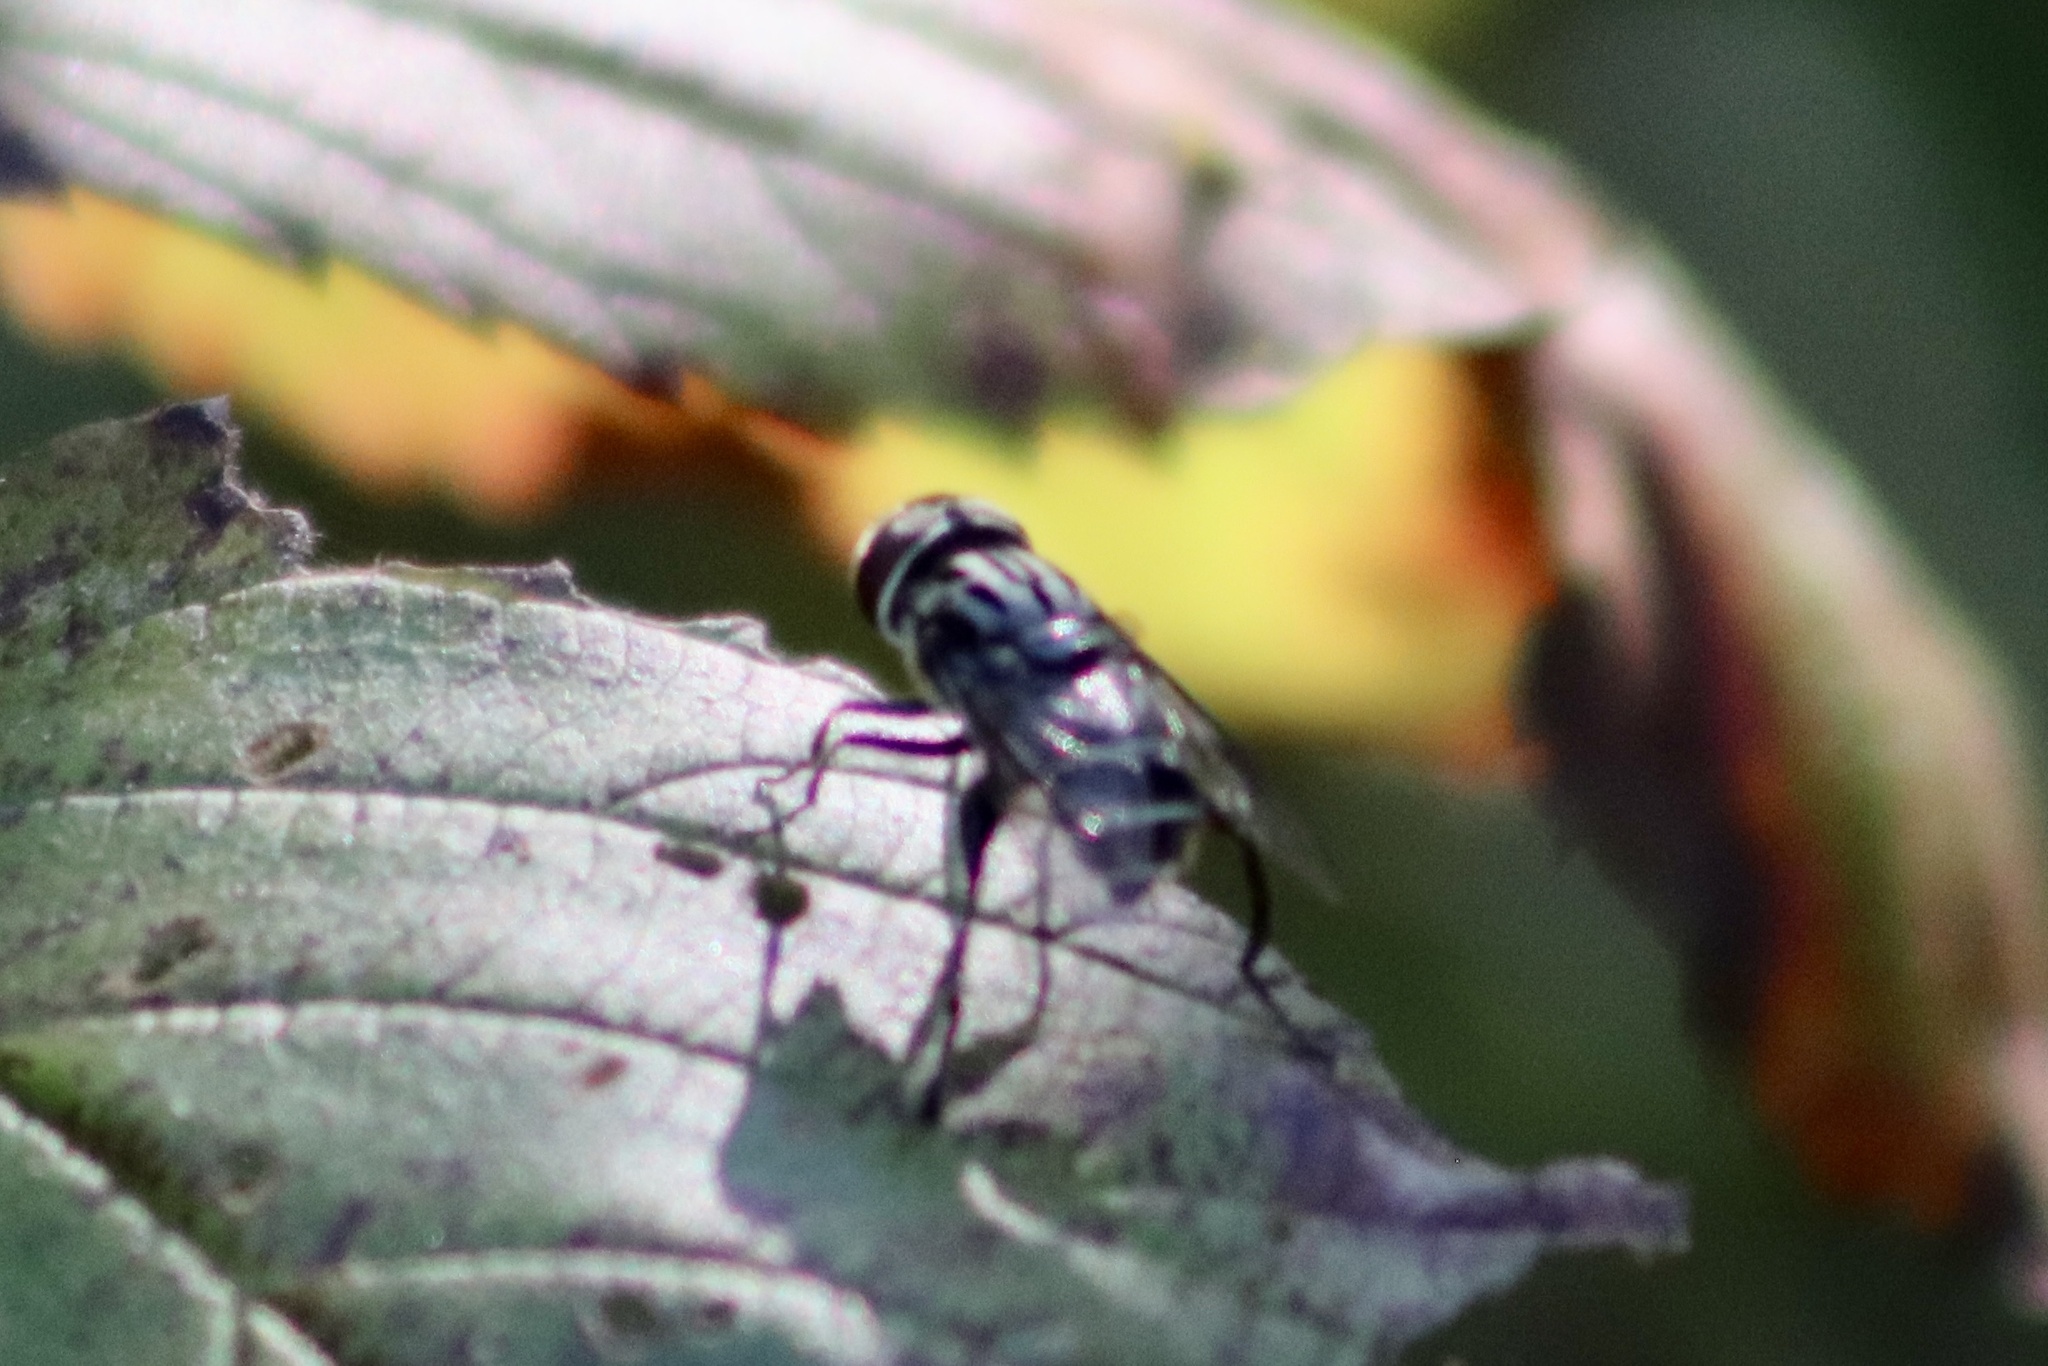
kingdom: Animalia
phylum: Arthropoda
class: Insecta
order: Diptera
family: Syrphidae
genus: Palpada
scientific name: Palpada furcata
